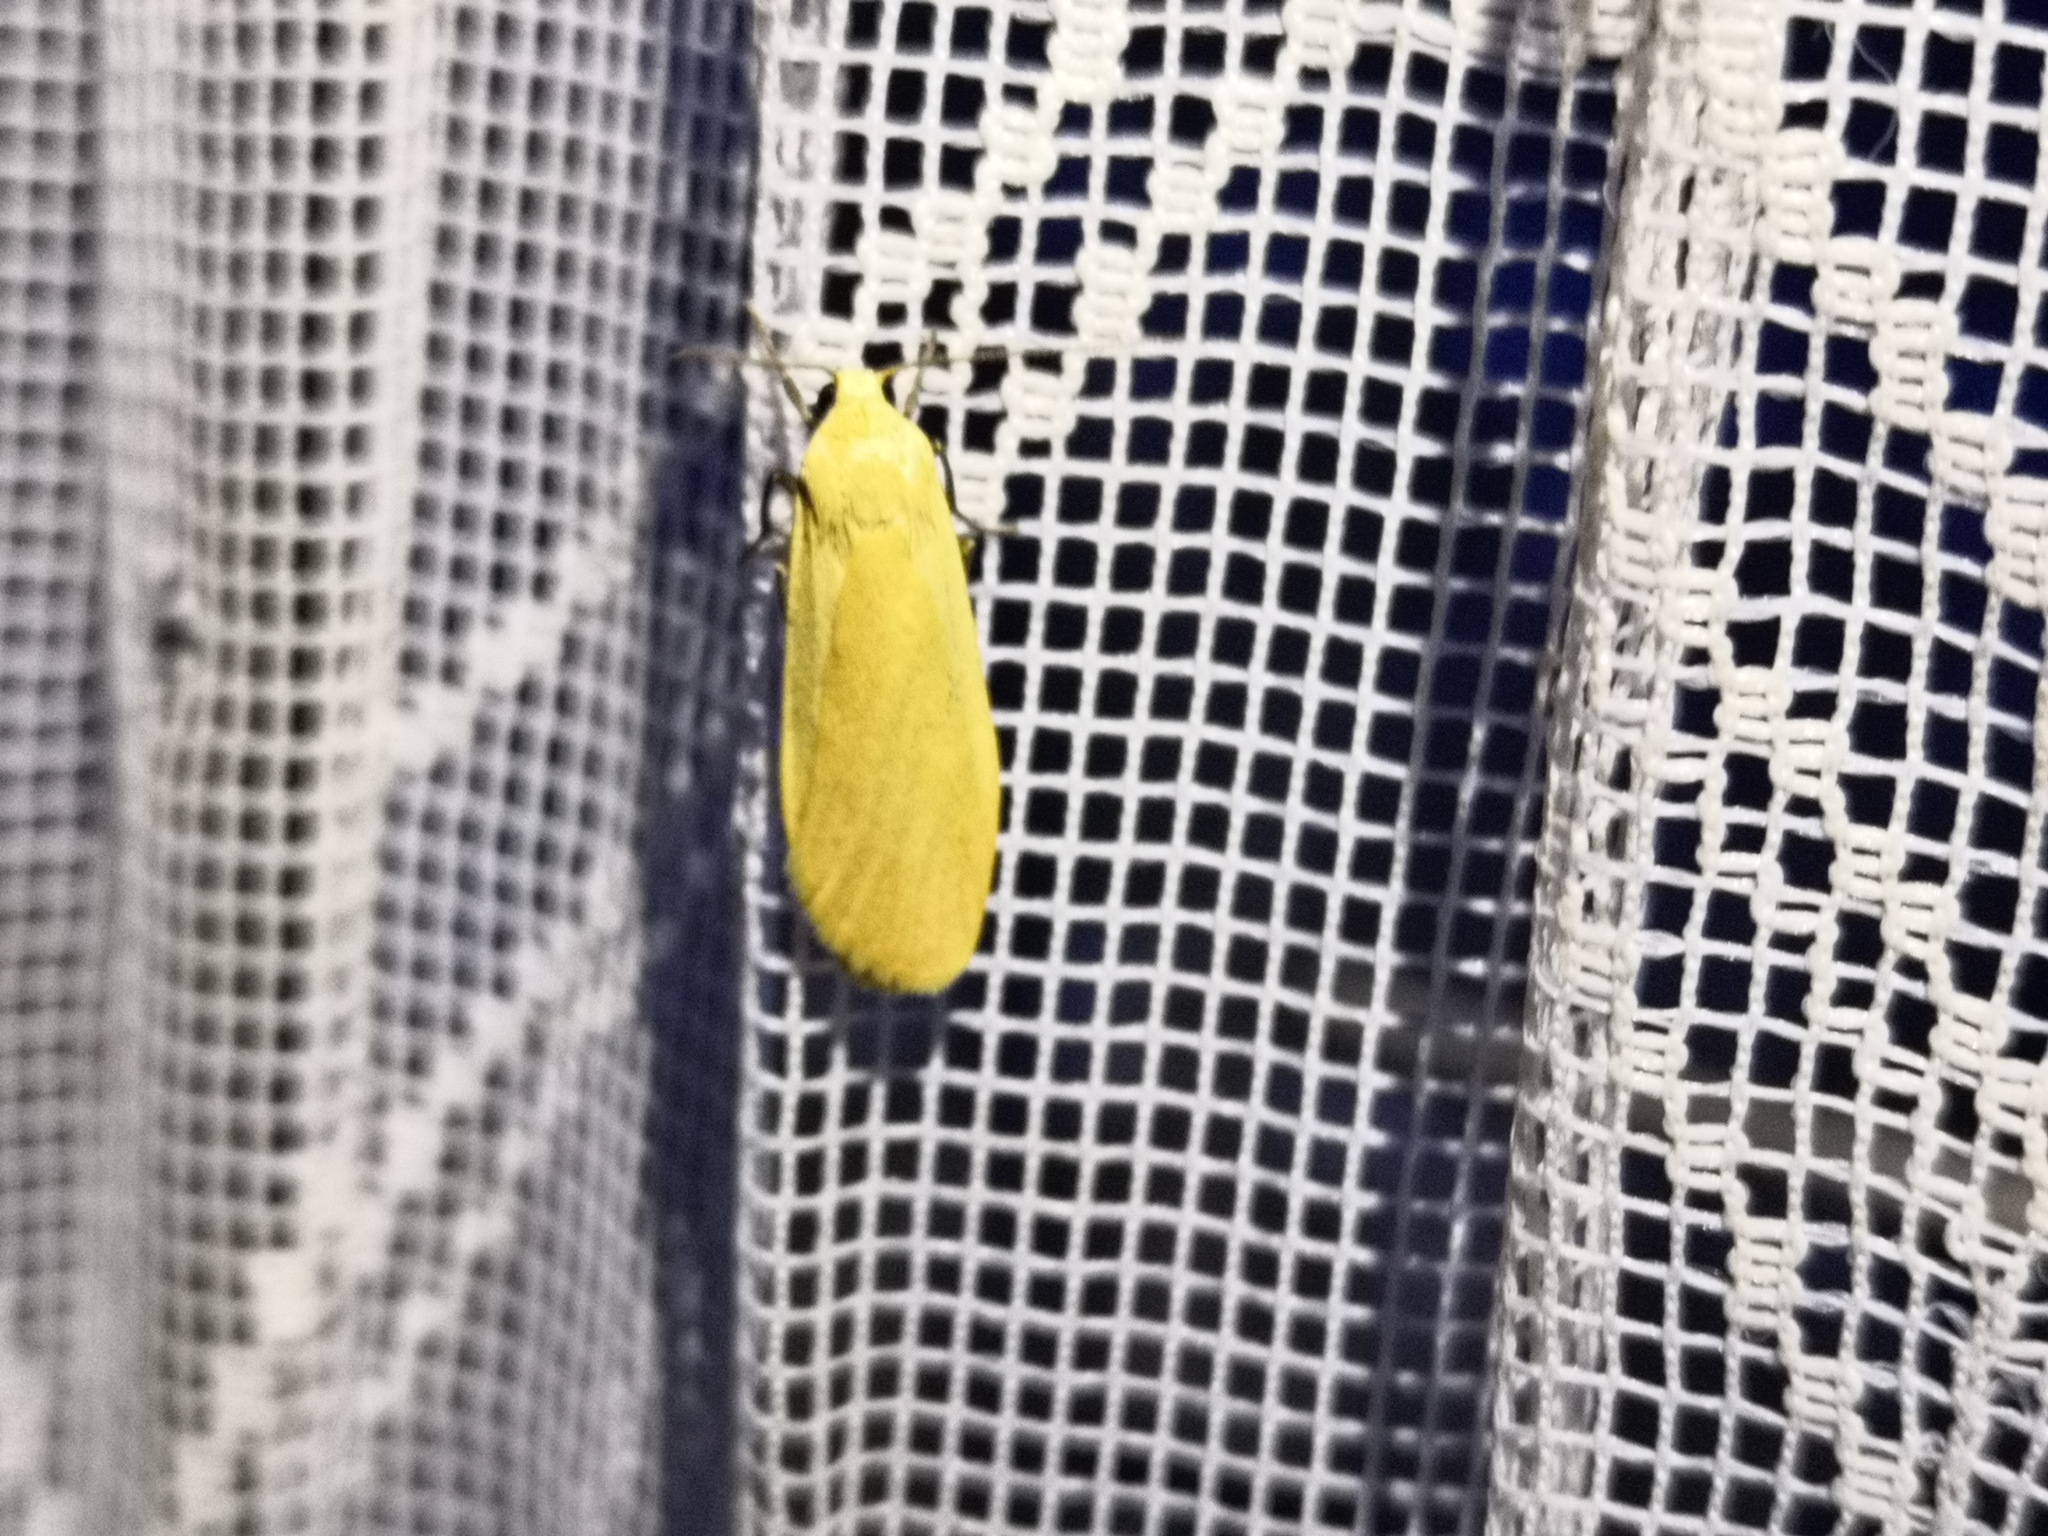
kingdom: Animalia
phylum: Arthropoda
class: Insecta
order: Lepidoptera
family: Erebidae
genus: Wittia
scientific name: Wittia sororcula
